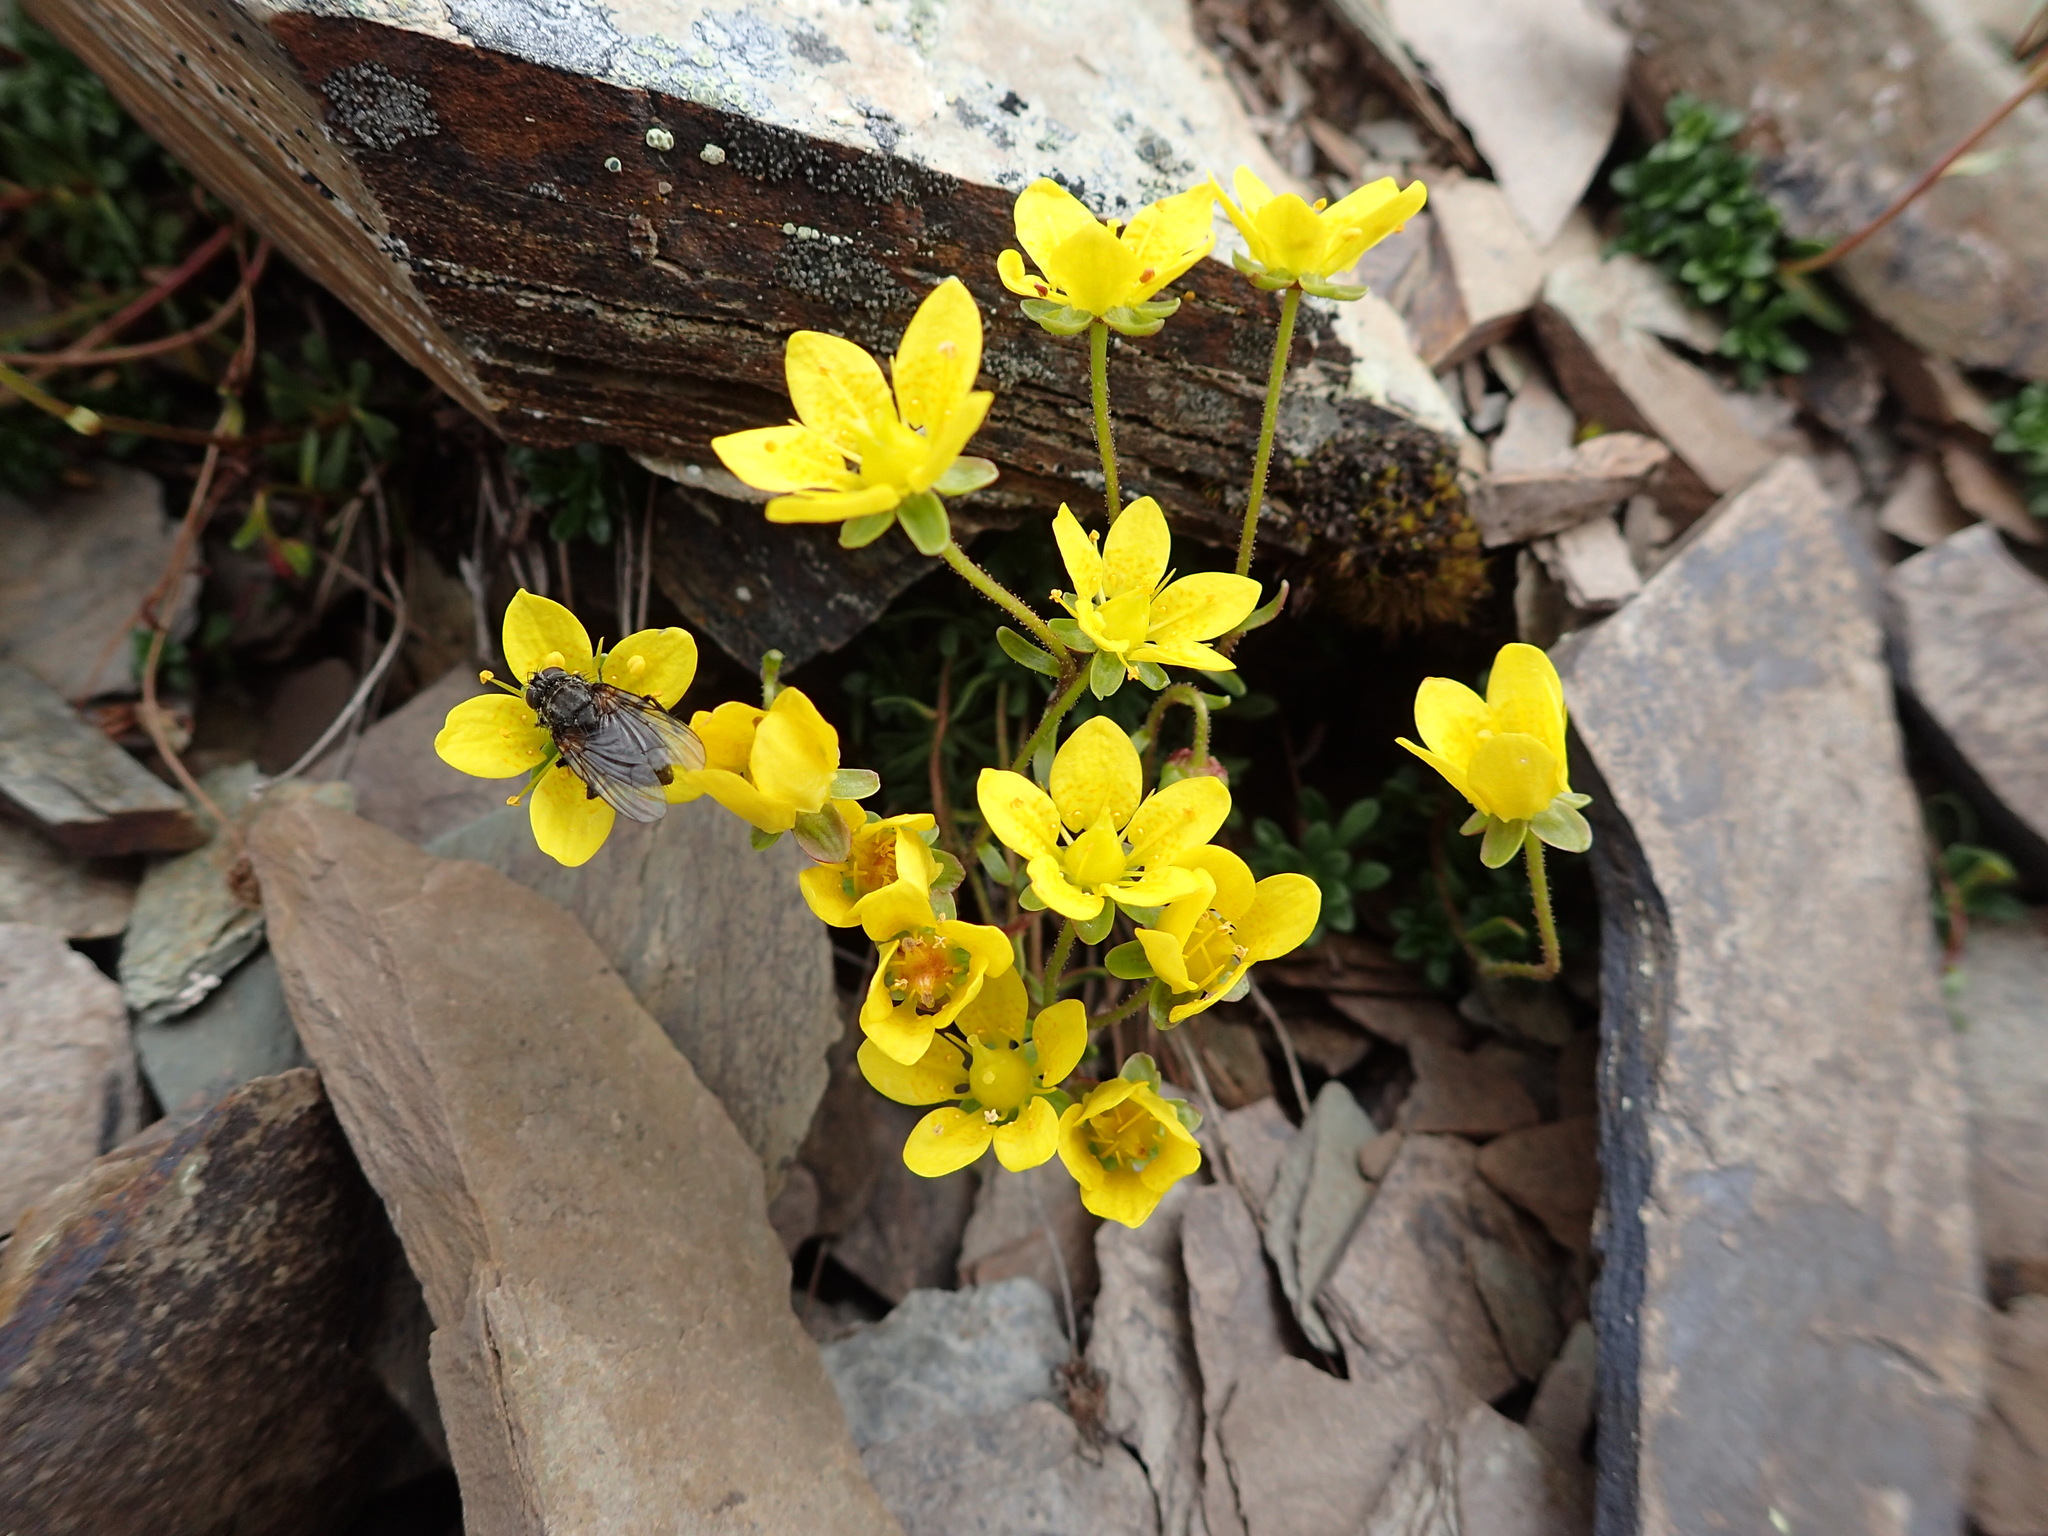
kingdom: Plantae
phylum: Tracheophyta
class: Magnoliopsida
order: Saxifragales
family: Saxifragaceae
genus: Saxifraga
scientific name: Saxifraga serpyllifolia
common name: Thyme-leaved saxifrage
